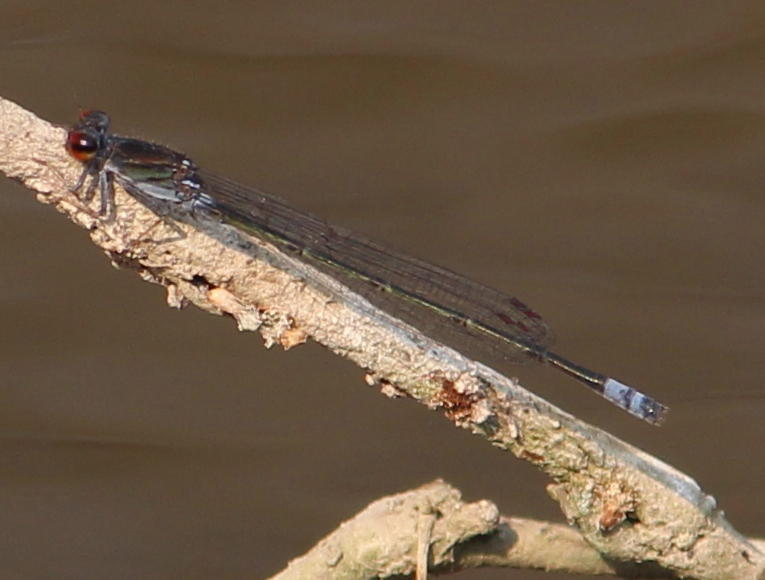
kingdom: Animalia
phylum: Arthropoda
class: Insecta
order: Odonata
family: Coenagrionidae
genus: Pseudagrion
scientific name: Pseudagrion hamoni
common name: Swarthy sprite
